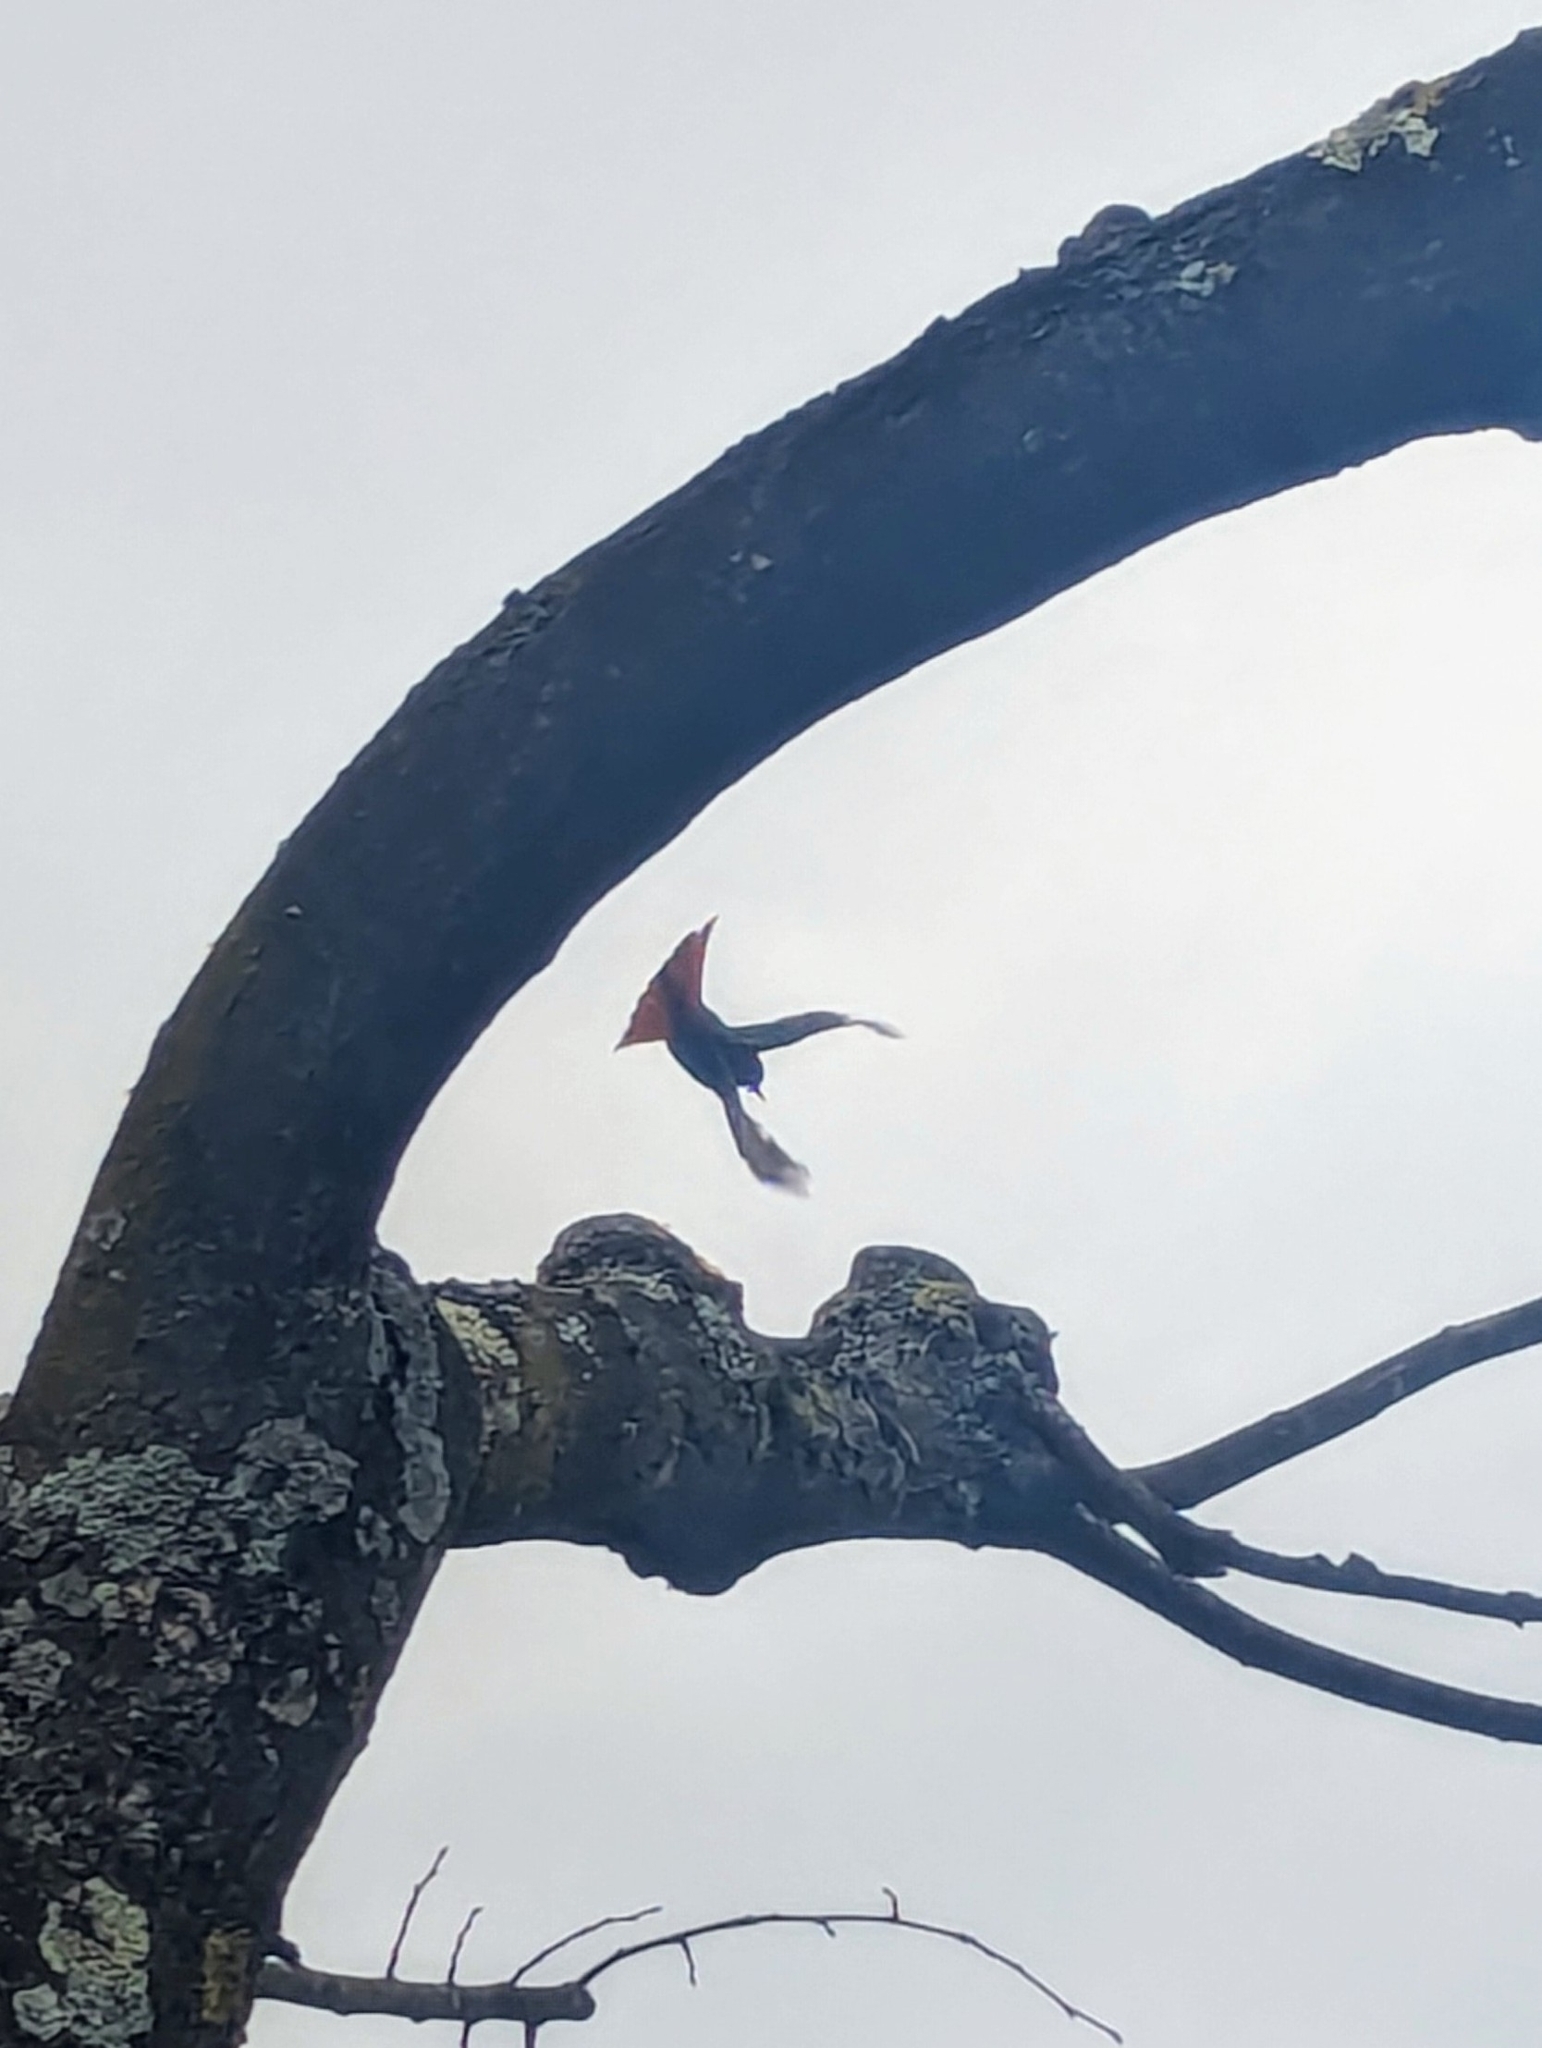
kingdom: Animalia
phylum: Chordata
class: Aves
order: Passeriformes
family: Muscicapidae
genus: Phoenicurus
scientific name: Phoenicurus ochruros
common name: Black redstart
